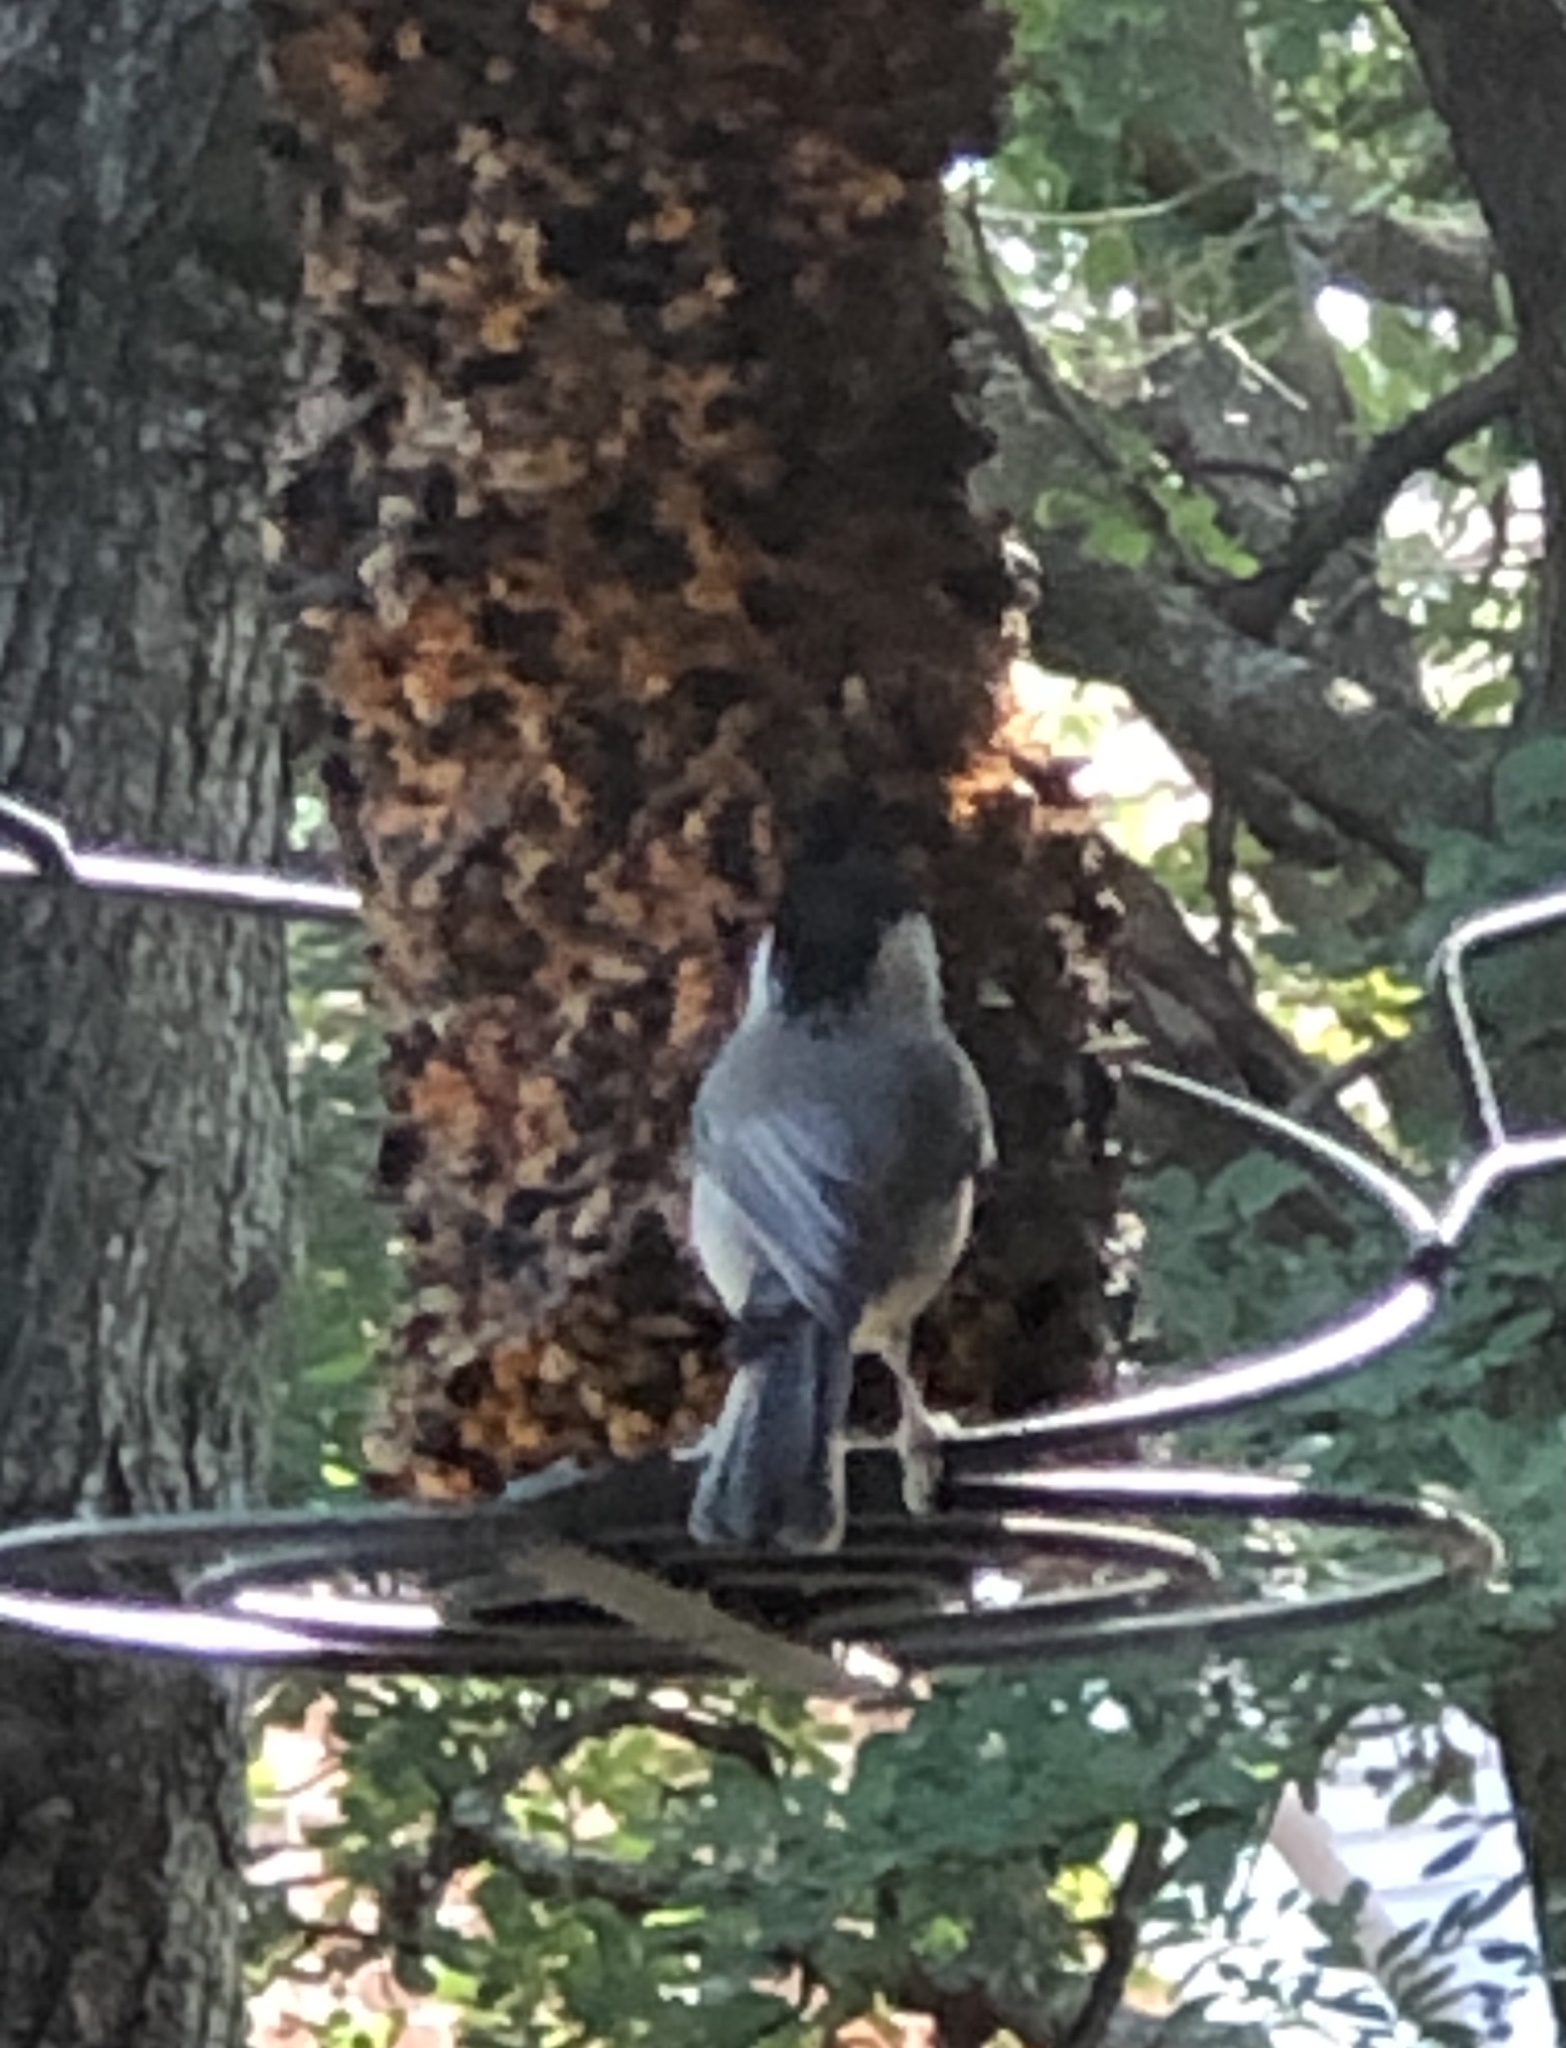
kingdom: Animalia
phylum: Chordata
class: Aves
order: Passeriformes
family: Paridae
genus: Poecile
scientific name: Poecile carolinensis
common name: Carolina chickadee
